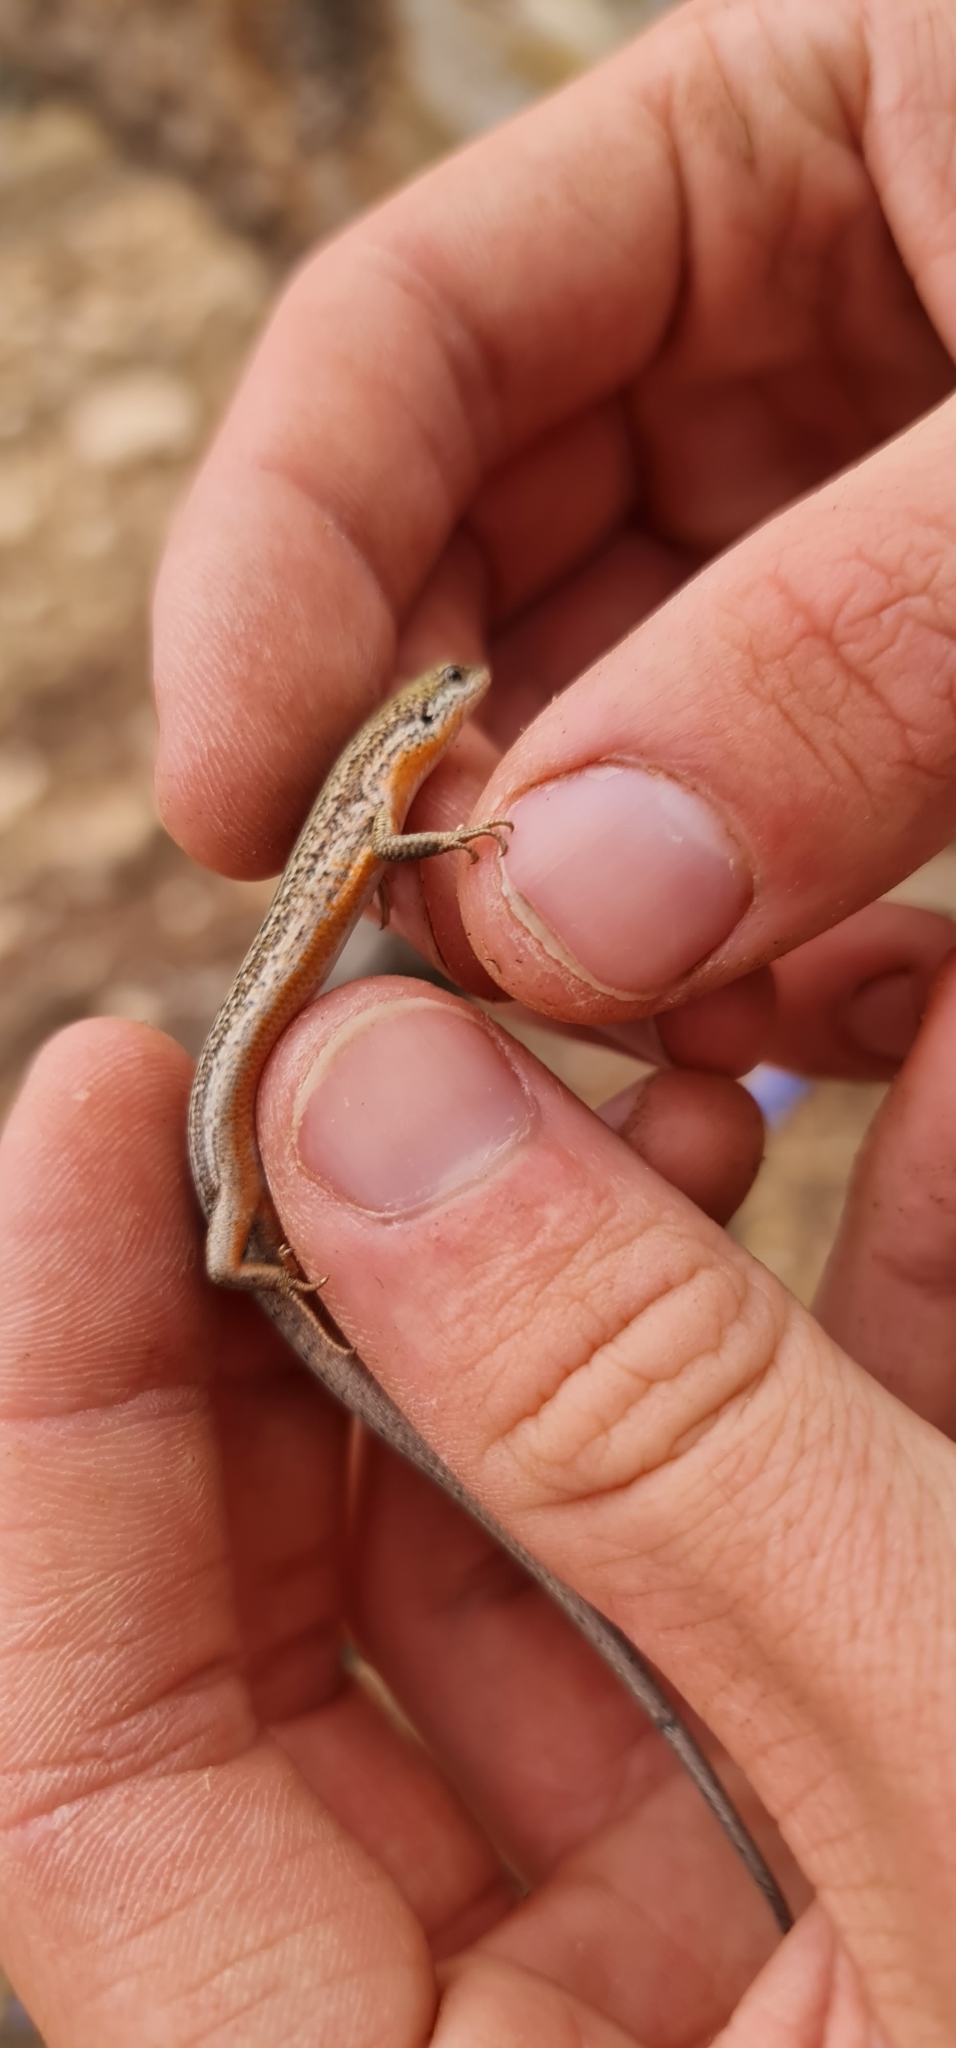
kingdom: Animalia
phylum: Chordata
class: Squamata
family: Scincidae
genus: Morethia
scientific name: Morethia adelaidensis
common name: Saltbush morethia skink
